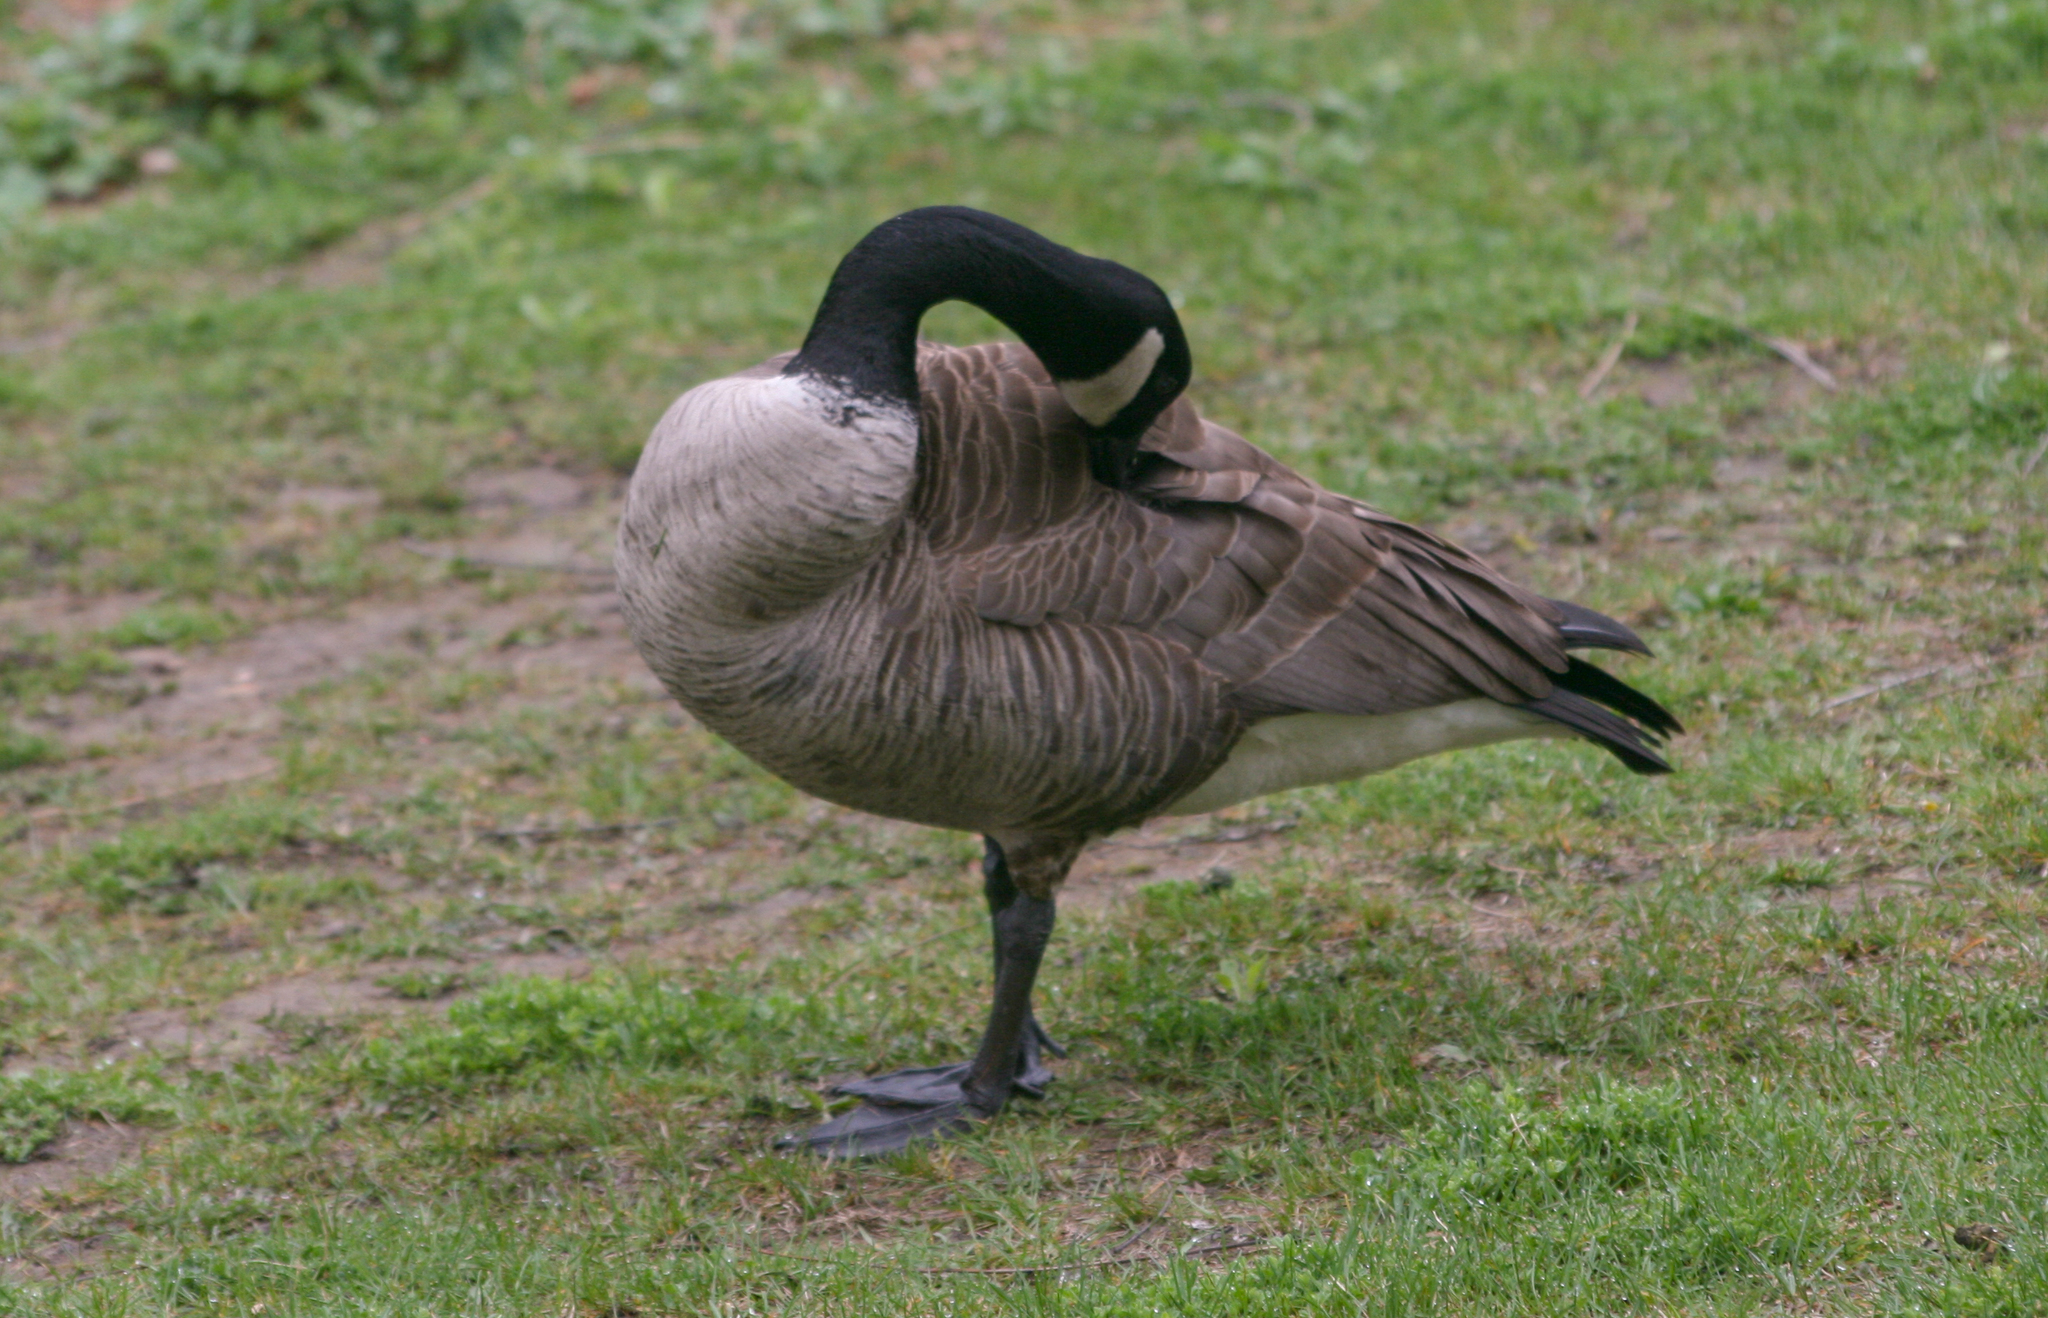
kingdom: Animalia
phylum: Chordata
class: Aves
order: Anseriformes
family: Anatidae
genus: Branta
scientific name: Branta canadensis
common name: Canada goose
